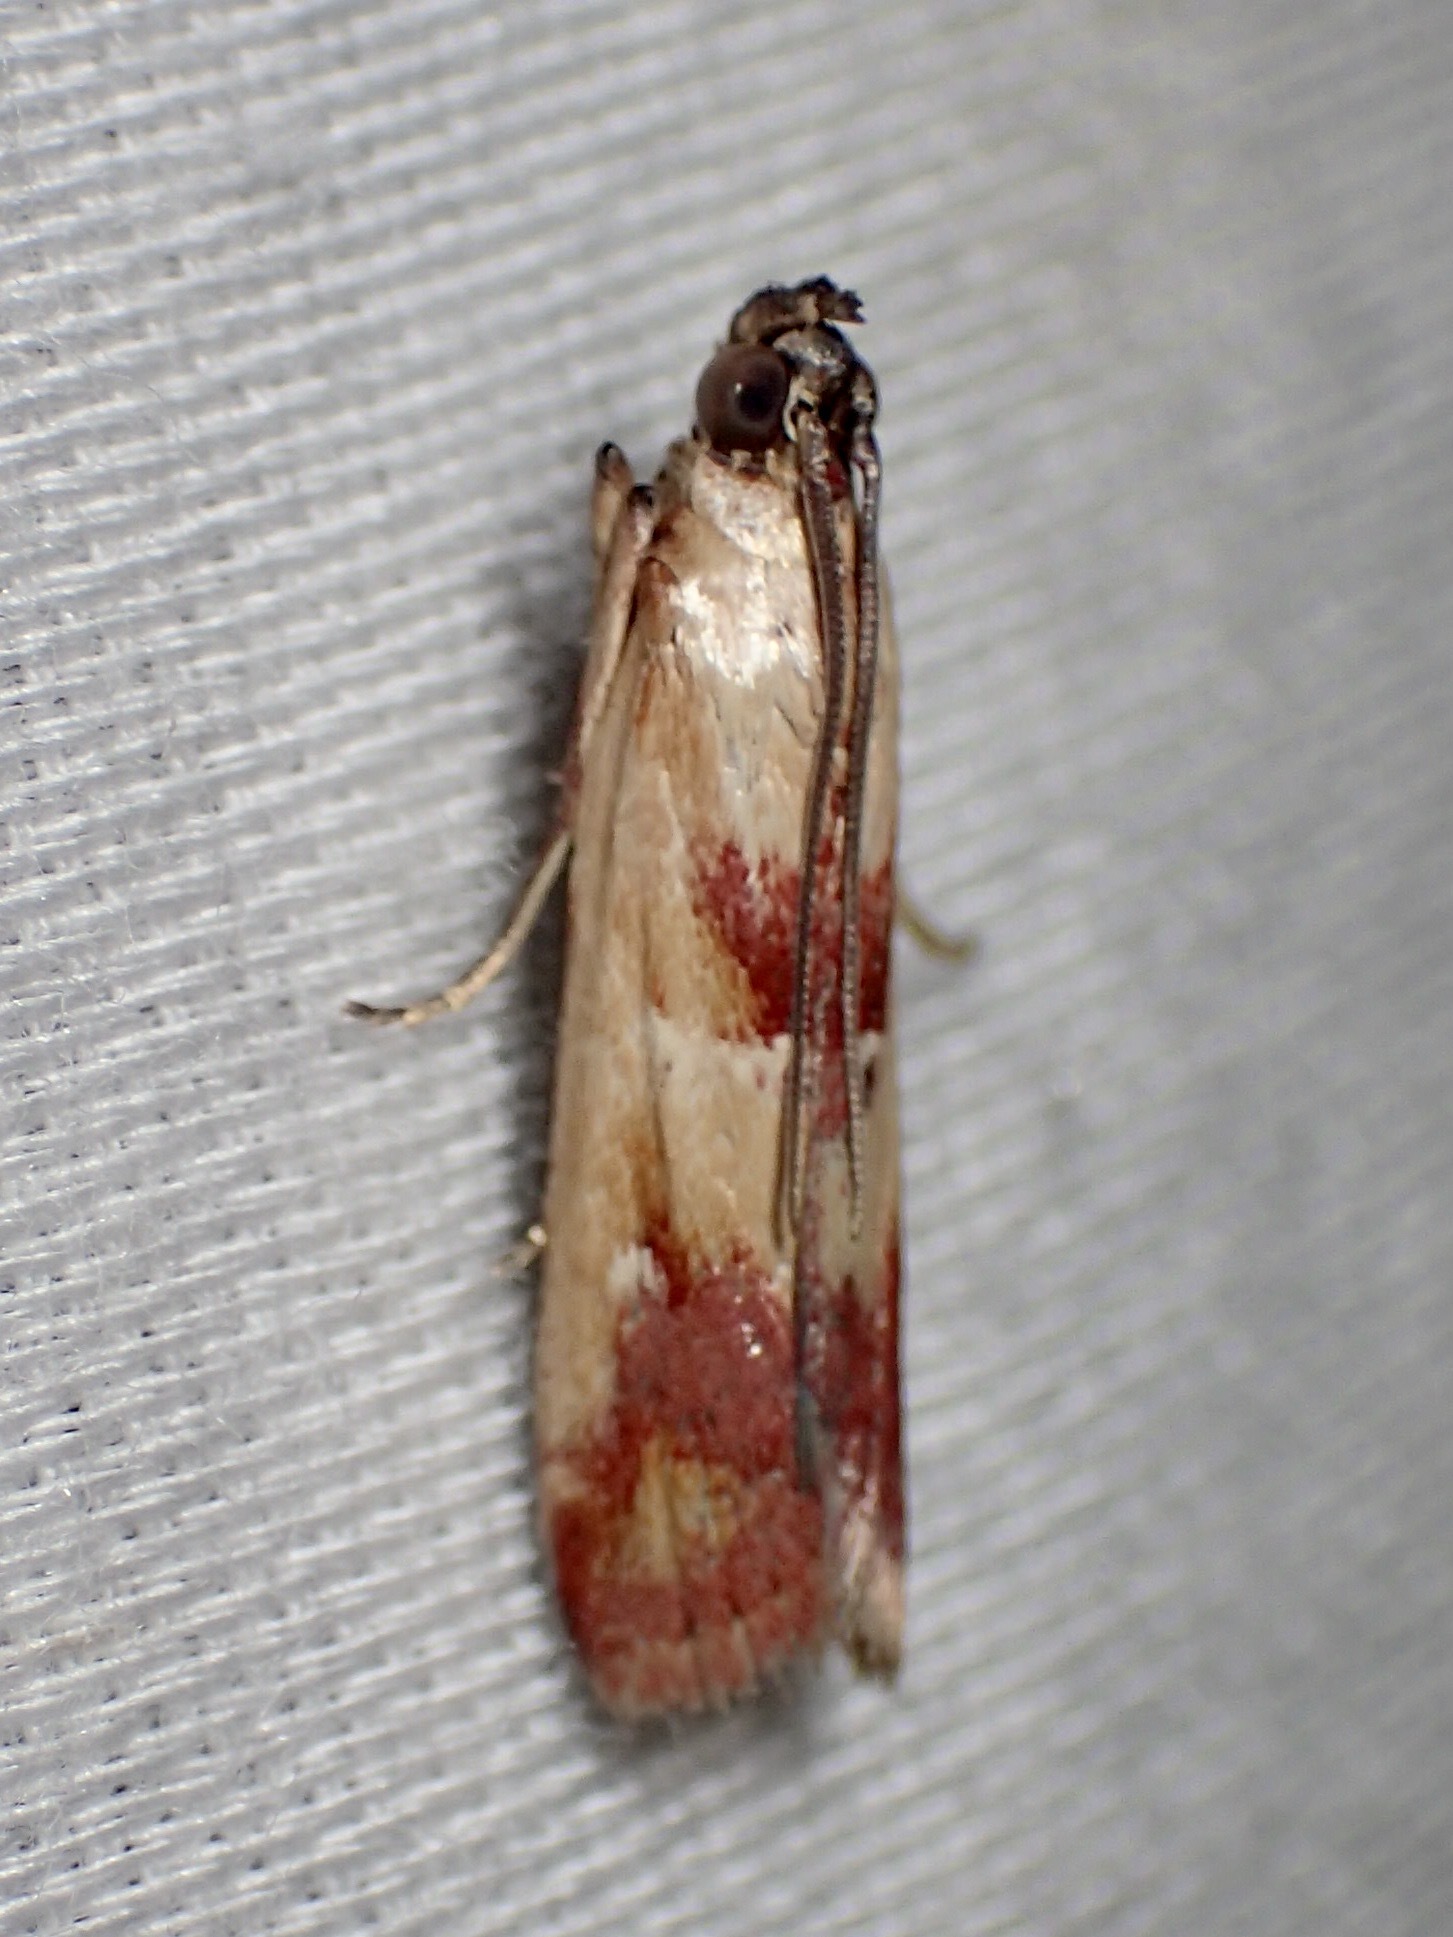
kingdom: Animalia
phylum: Arthropoda
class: Insecta
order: Lepidoptera
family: Pyralidae
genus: Epicrocis
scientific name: Epicrocis metallopa
